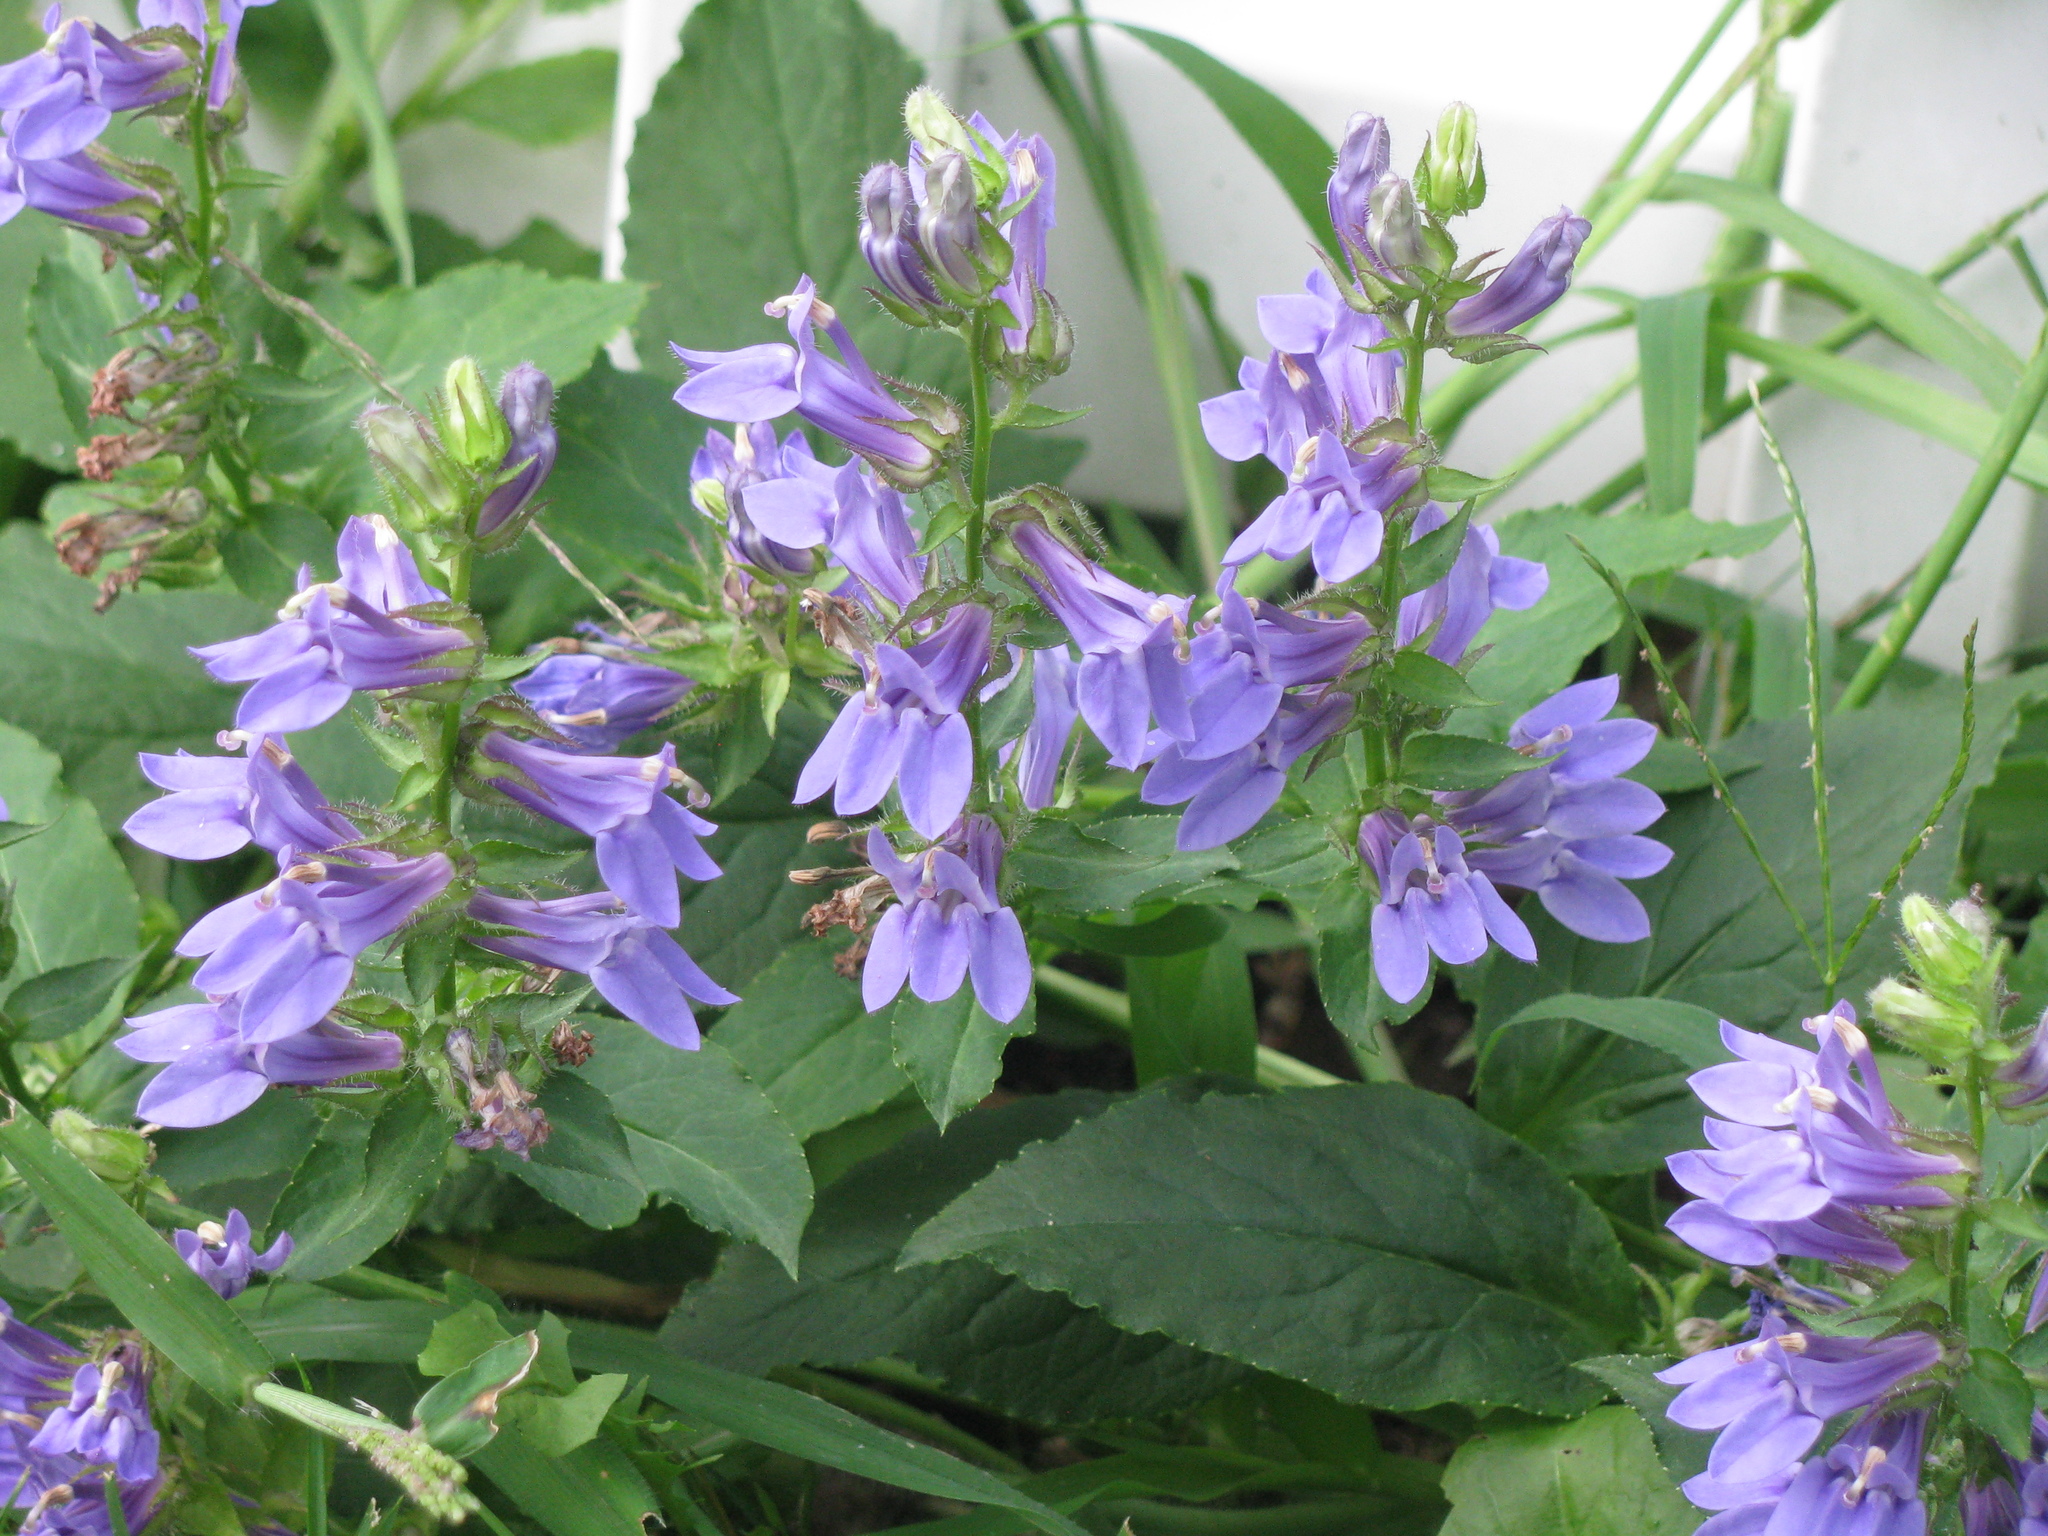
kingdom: Plantae
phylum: Tracheophyta
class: Magnoliopsida
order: Asterales
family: Campanulaceae
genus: Lobelia
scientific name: Lobelia siphilitica
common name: Great lobelia
